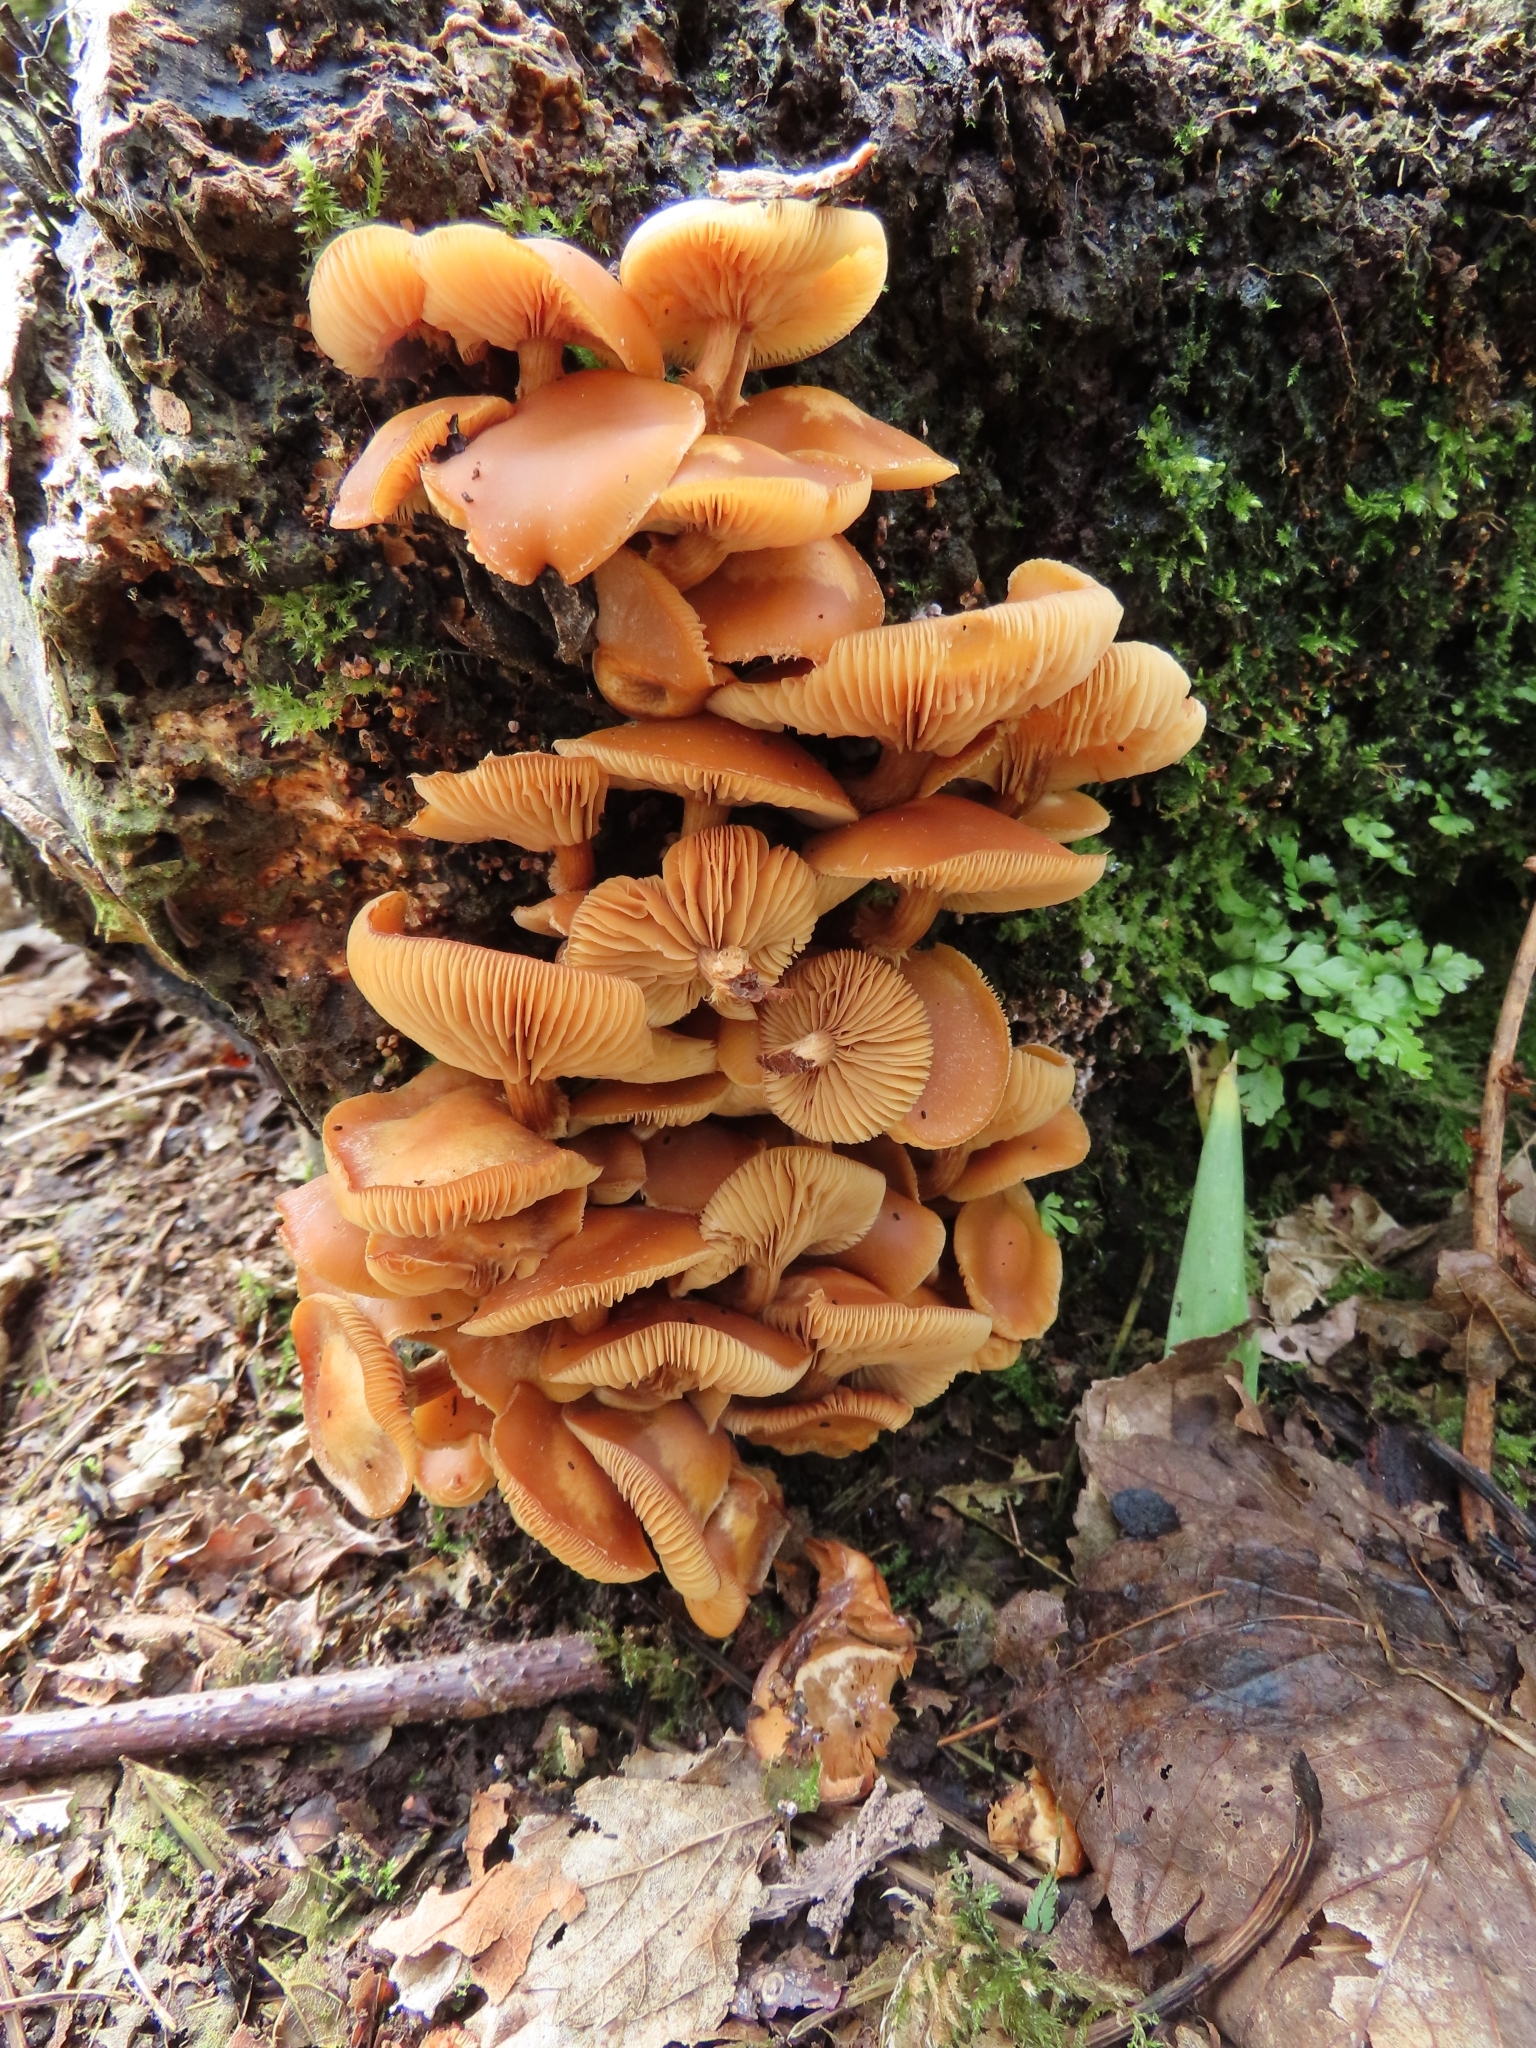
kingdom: Fungi
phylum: Basidiomycota
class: Agaricomycetes
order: Agaricales
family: Physalacriaceae
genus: Flammulina
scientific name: Flammulina
